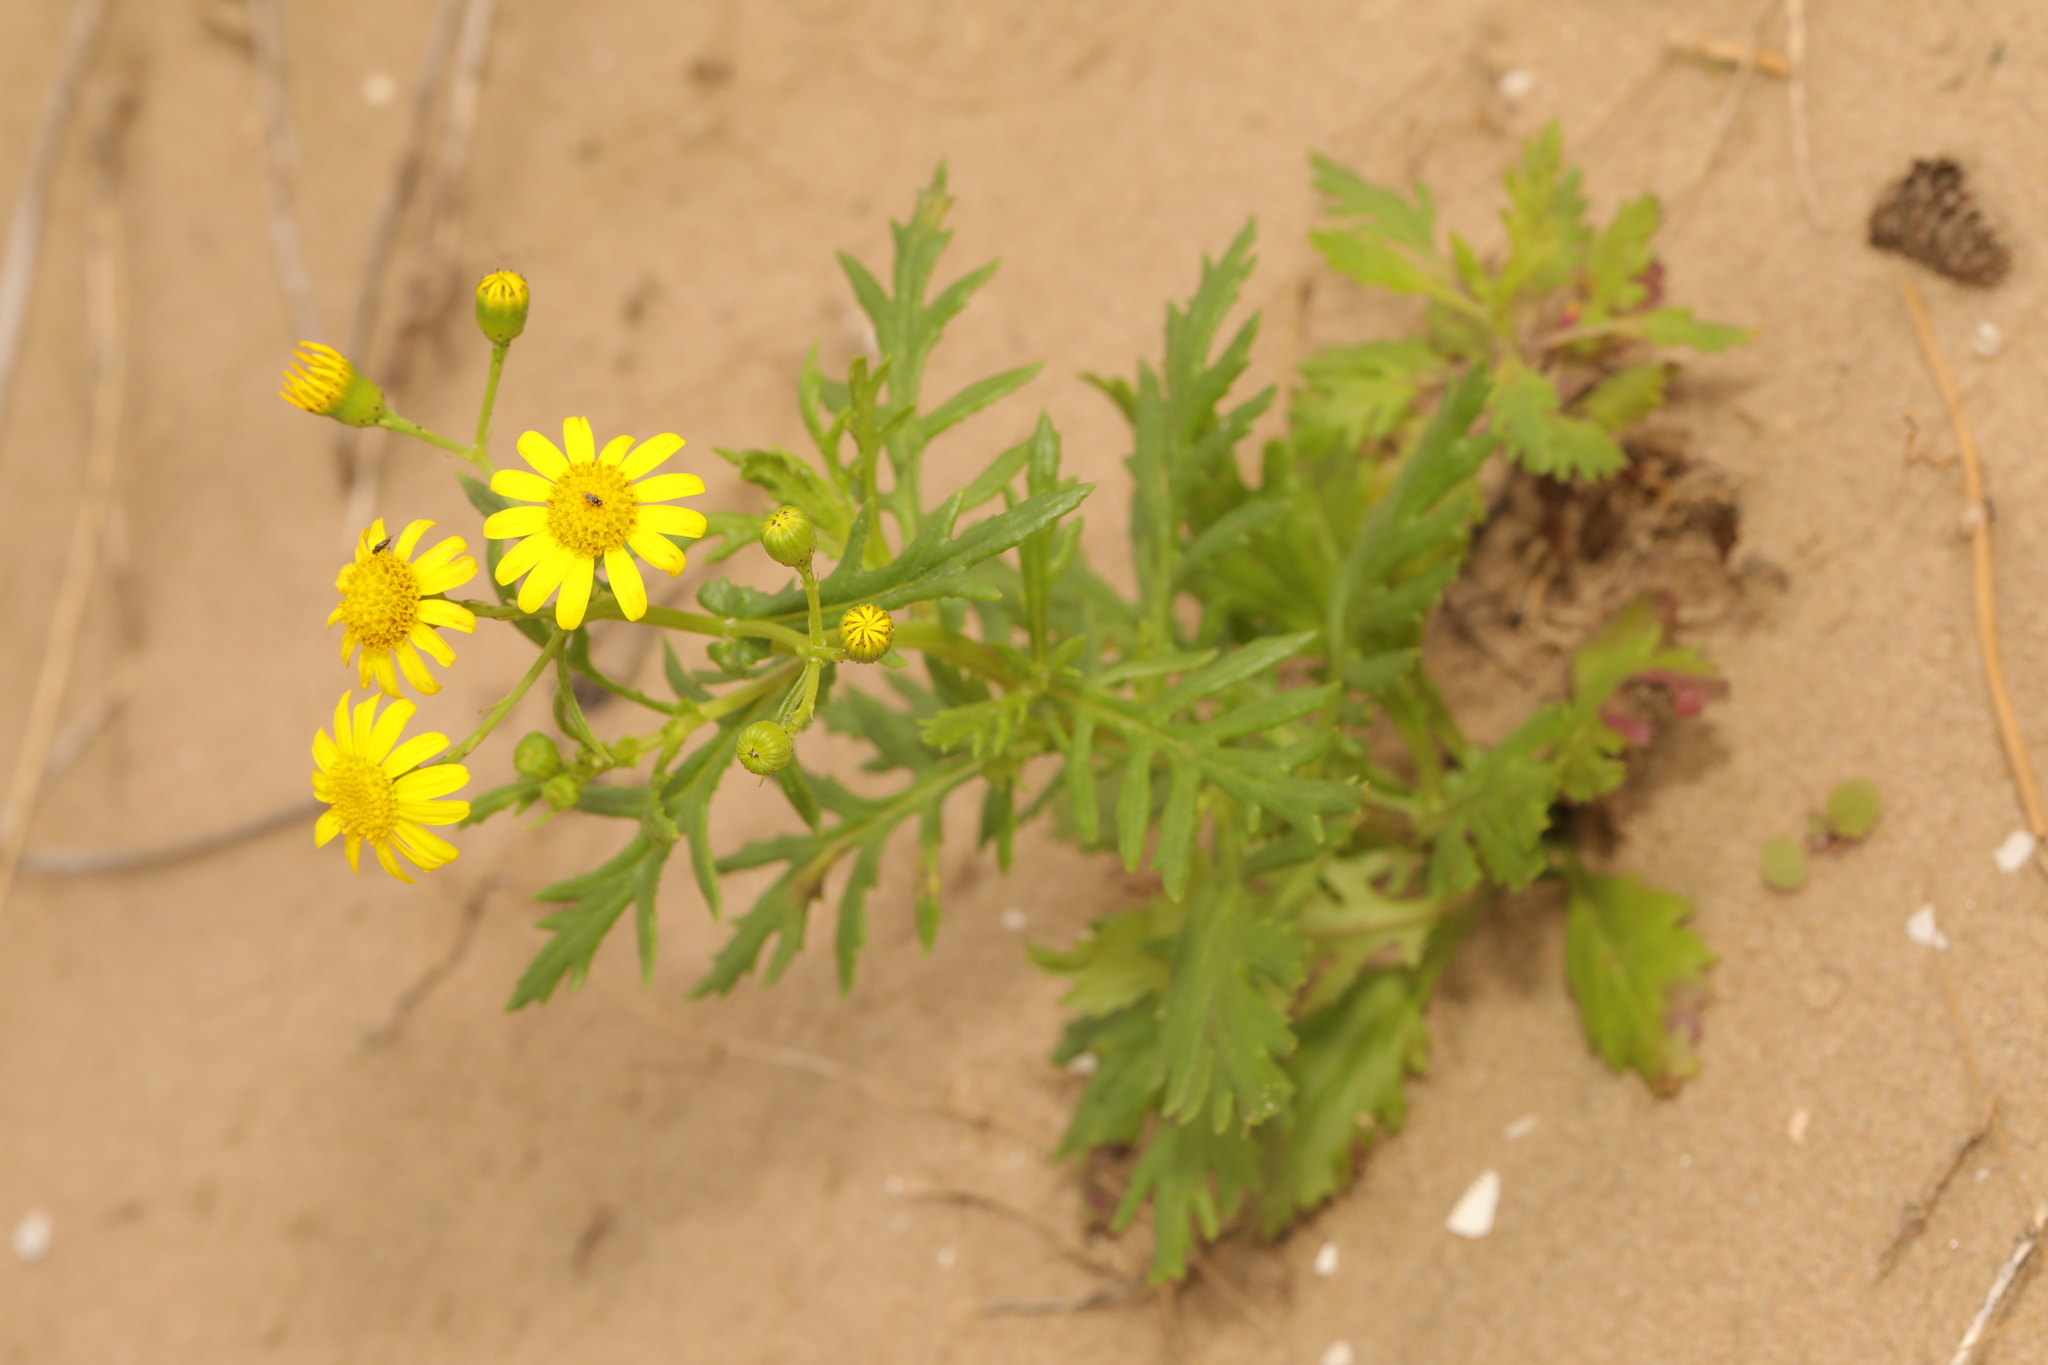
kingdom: Plantae
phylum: Tracheophyta
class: Magnoliopsida
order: Asterales
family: Asteraceae
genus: Senecio
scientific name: Senecio squalidus
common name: Oxford ragwort
